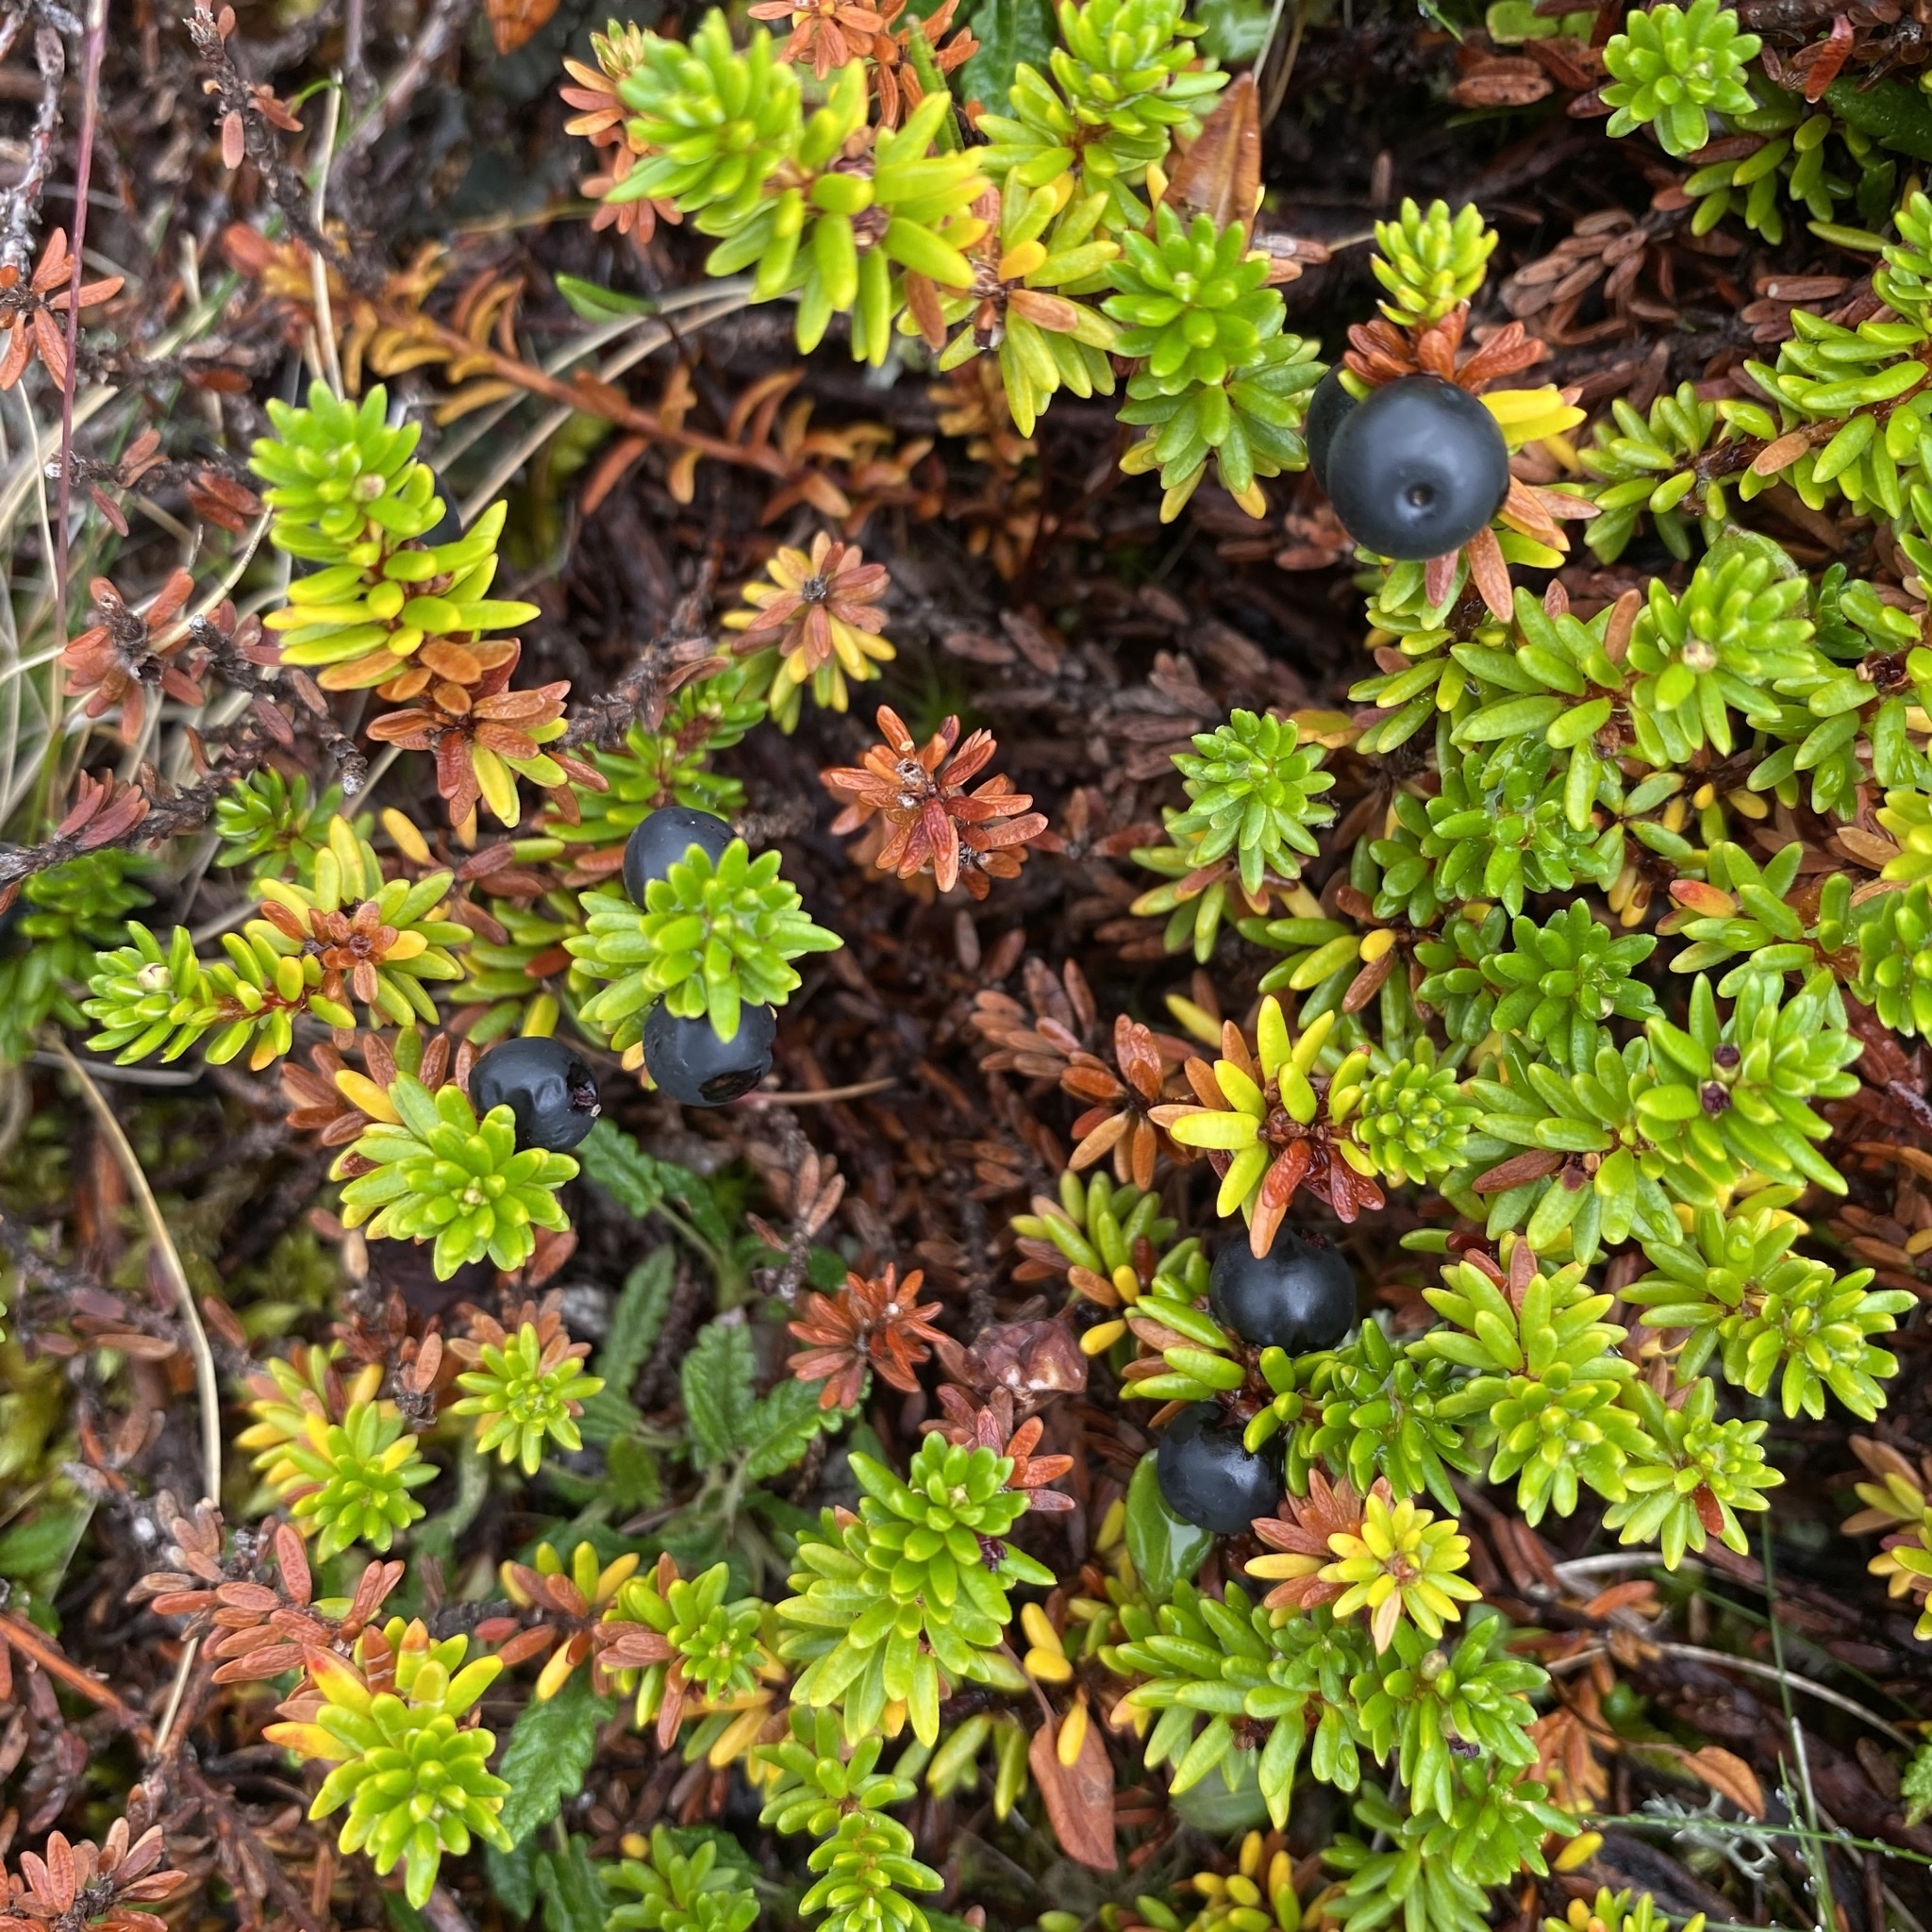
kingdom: Plantae
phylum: Tracheophyta
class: Magnoliopsida
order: Ericales
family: Ericaceae
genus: Empetrum
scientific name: Empetrum nigrum
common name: Black crowberry
